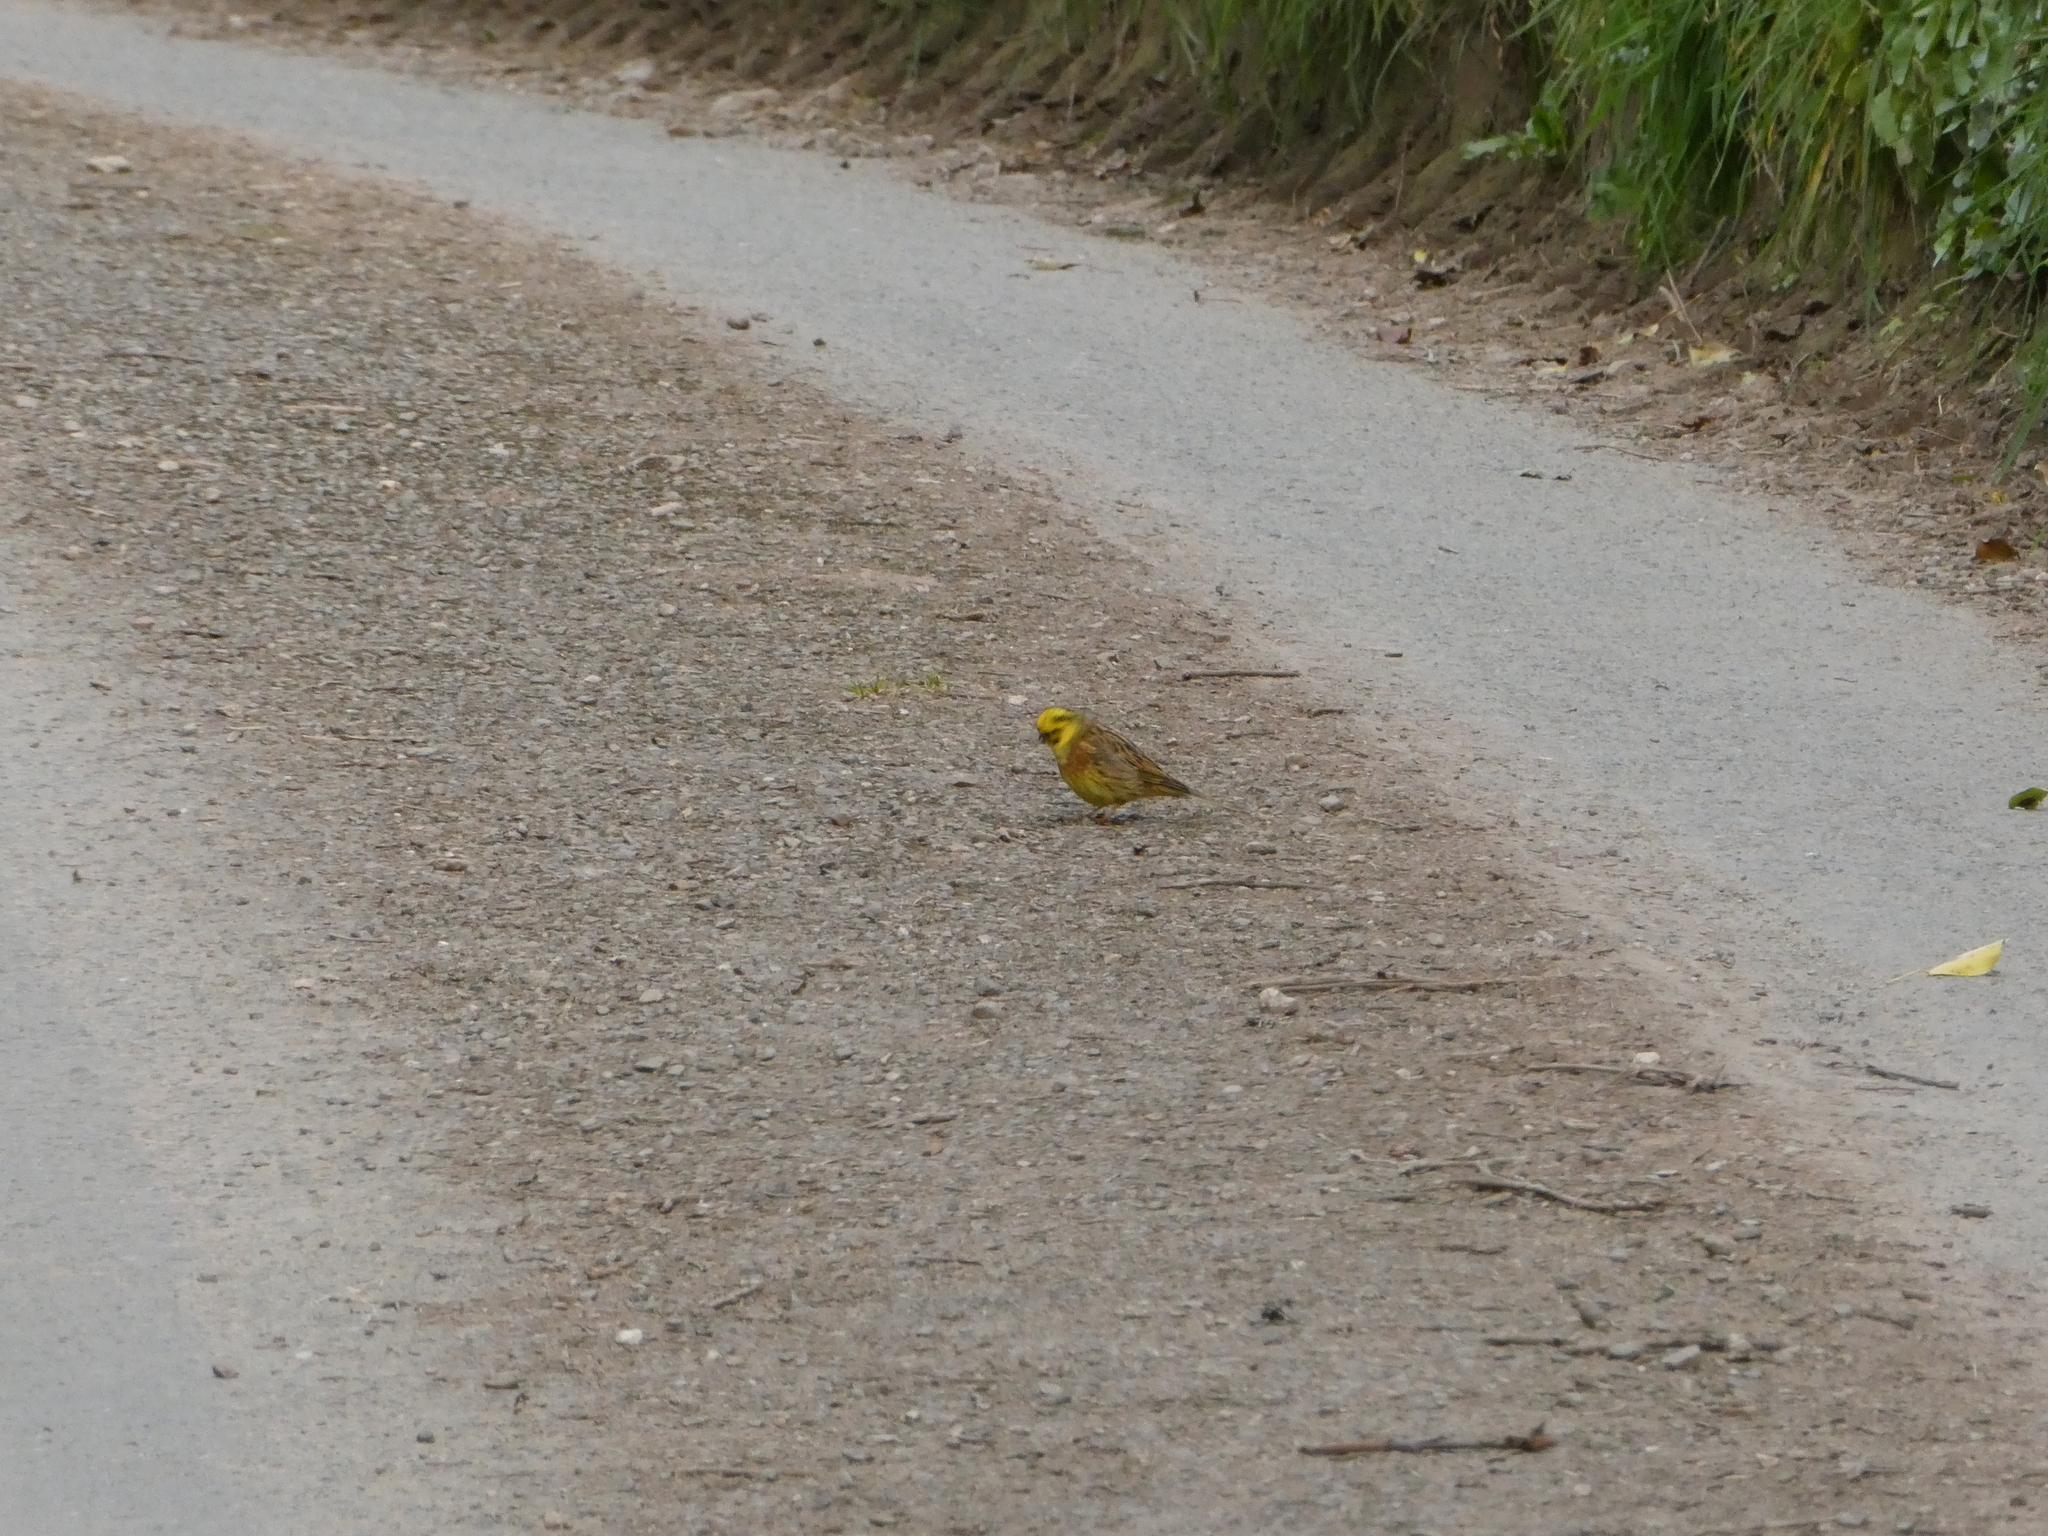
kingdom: Animalia
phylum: Chordata
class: Aves
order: Passeriformes
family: Emberizidae
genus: Emberiza
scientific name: Emberiza citrinella
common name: Yellowhammer
